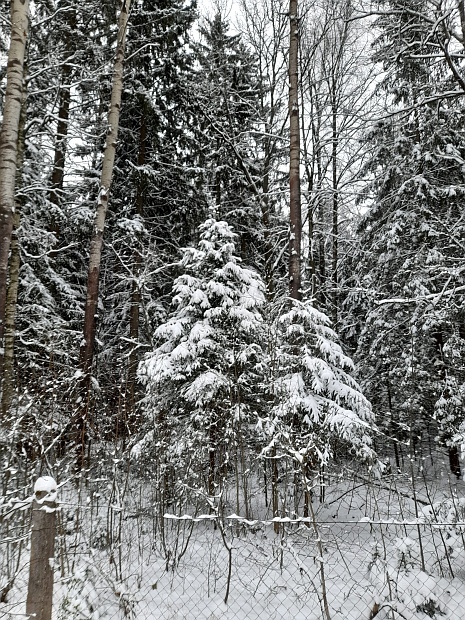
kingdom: Plantae
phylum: Tracheophyta
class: Pinopsida
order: Pinales
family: Pinaceae
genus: Picea
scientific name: Picea abies
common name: Norway spruce
